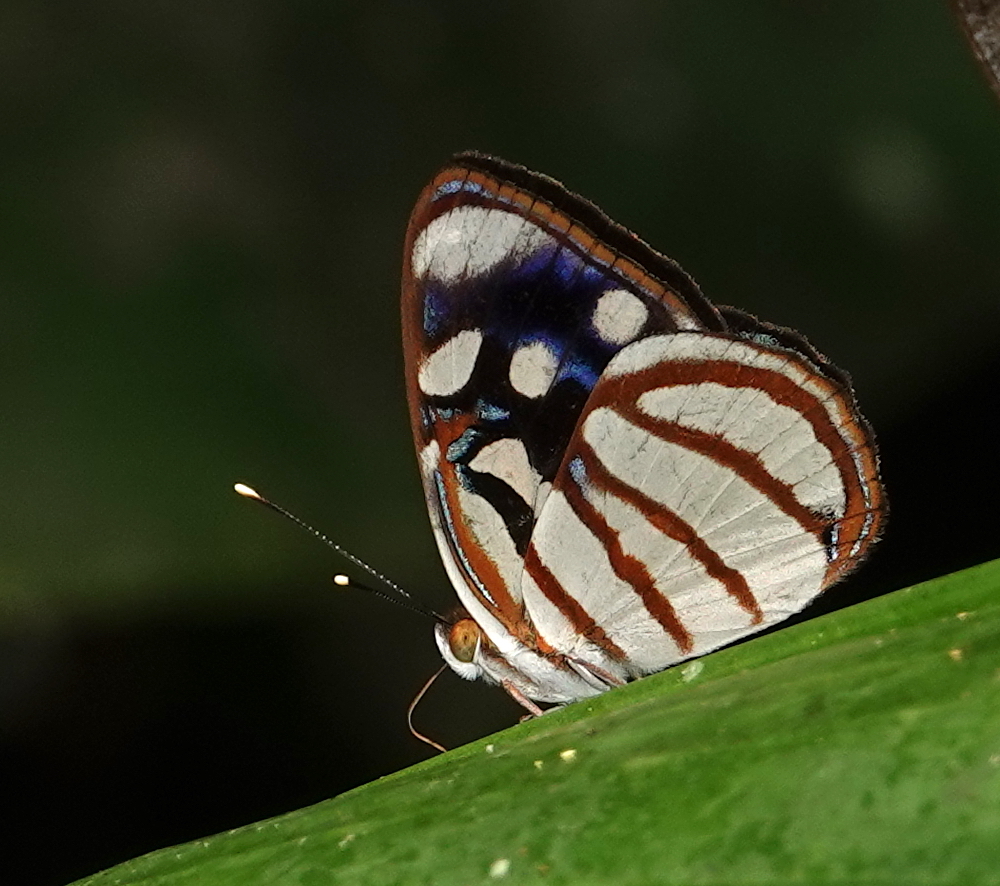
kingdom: Animalia
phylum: Arthropoda
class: Insecta
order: Lepidoptera
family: Nymphalidae
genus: Dynamine
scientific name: Dynamine chryseis
